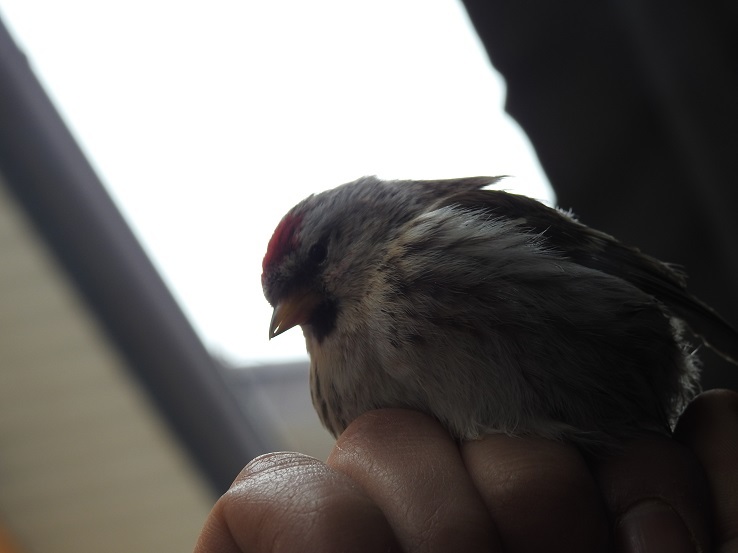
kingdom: Animalia
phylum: Chordata
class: Aves
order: Passeriformes
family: Fringillidae
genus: Acanthis
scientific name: Acanthis flammea
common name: Common redpoll
